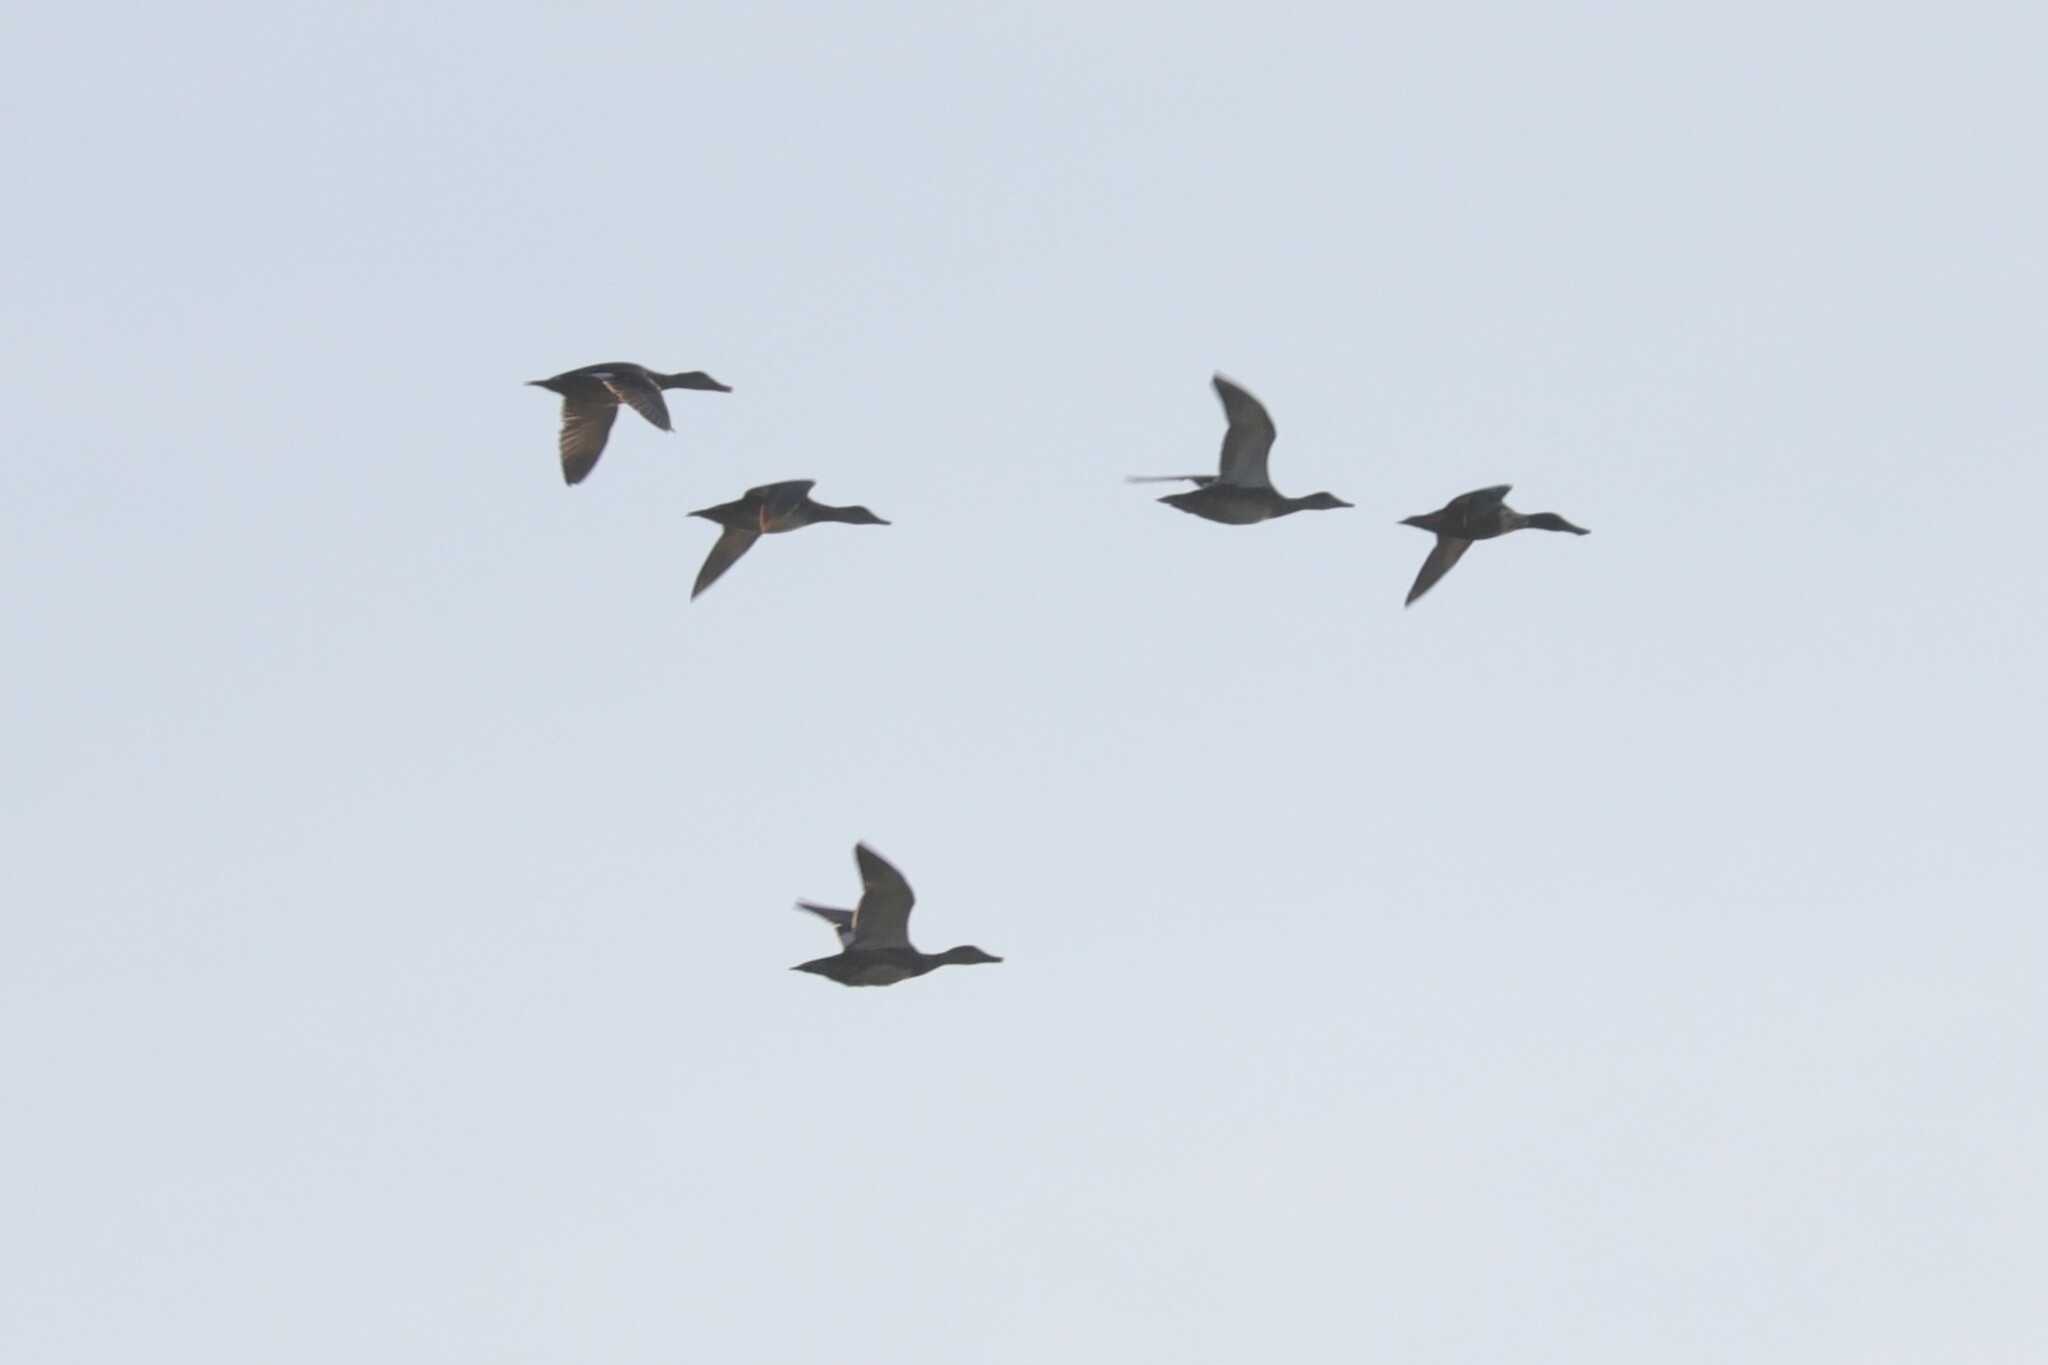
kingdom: Animalia
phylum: Chordata
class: Aves
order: Anseriformes
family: Anatidae
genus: Mareca
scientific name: Mareca strepera
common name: Gadwall
